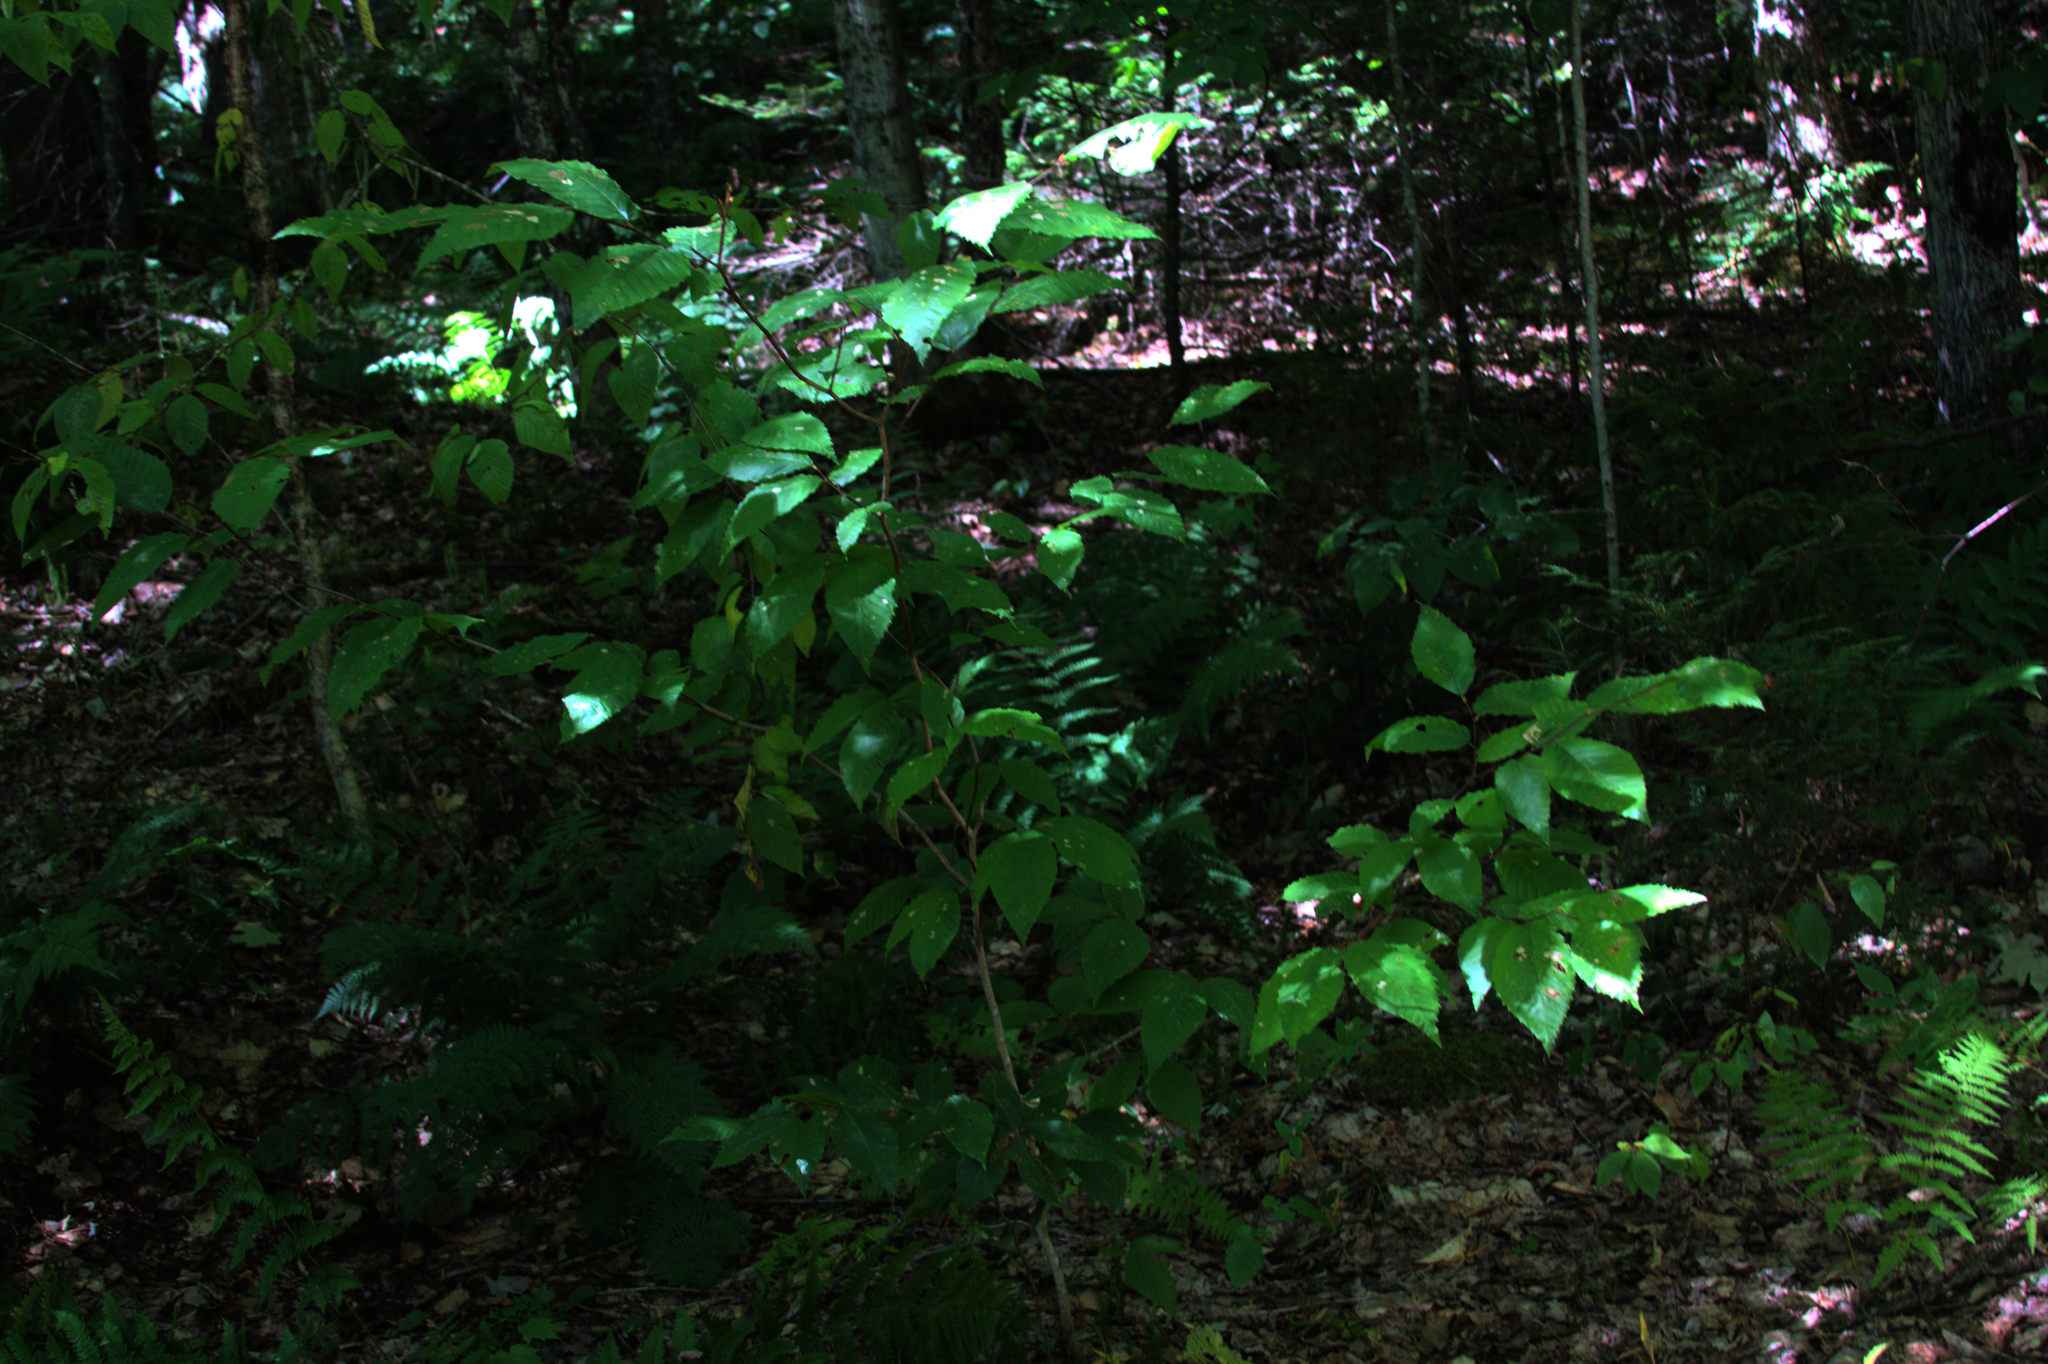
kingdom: Plantae
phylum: Tracheophyta
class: Magnoliopsida
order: Fagales
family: Fagaceae
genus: Fagus
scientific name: Fagus grandifolia
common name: American beech
